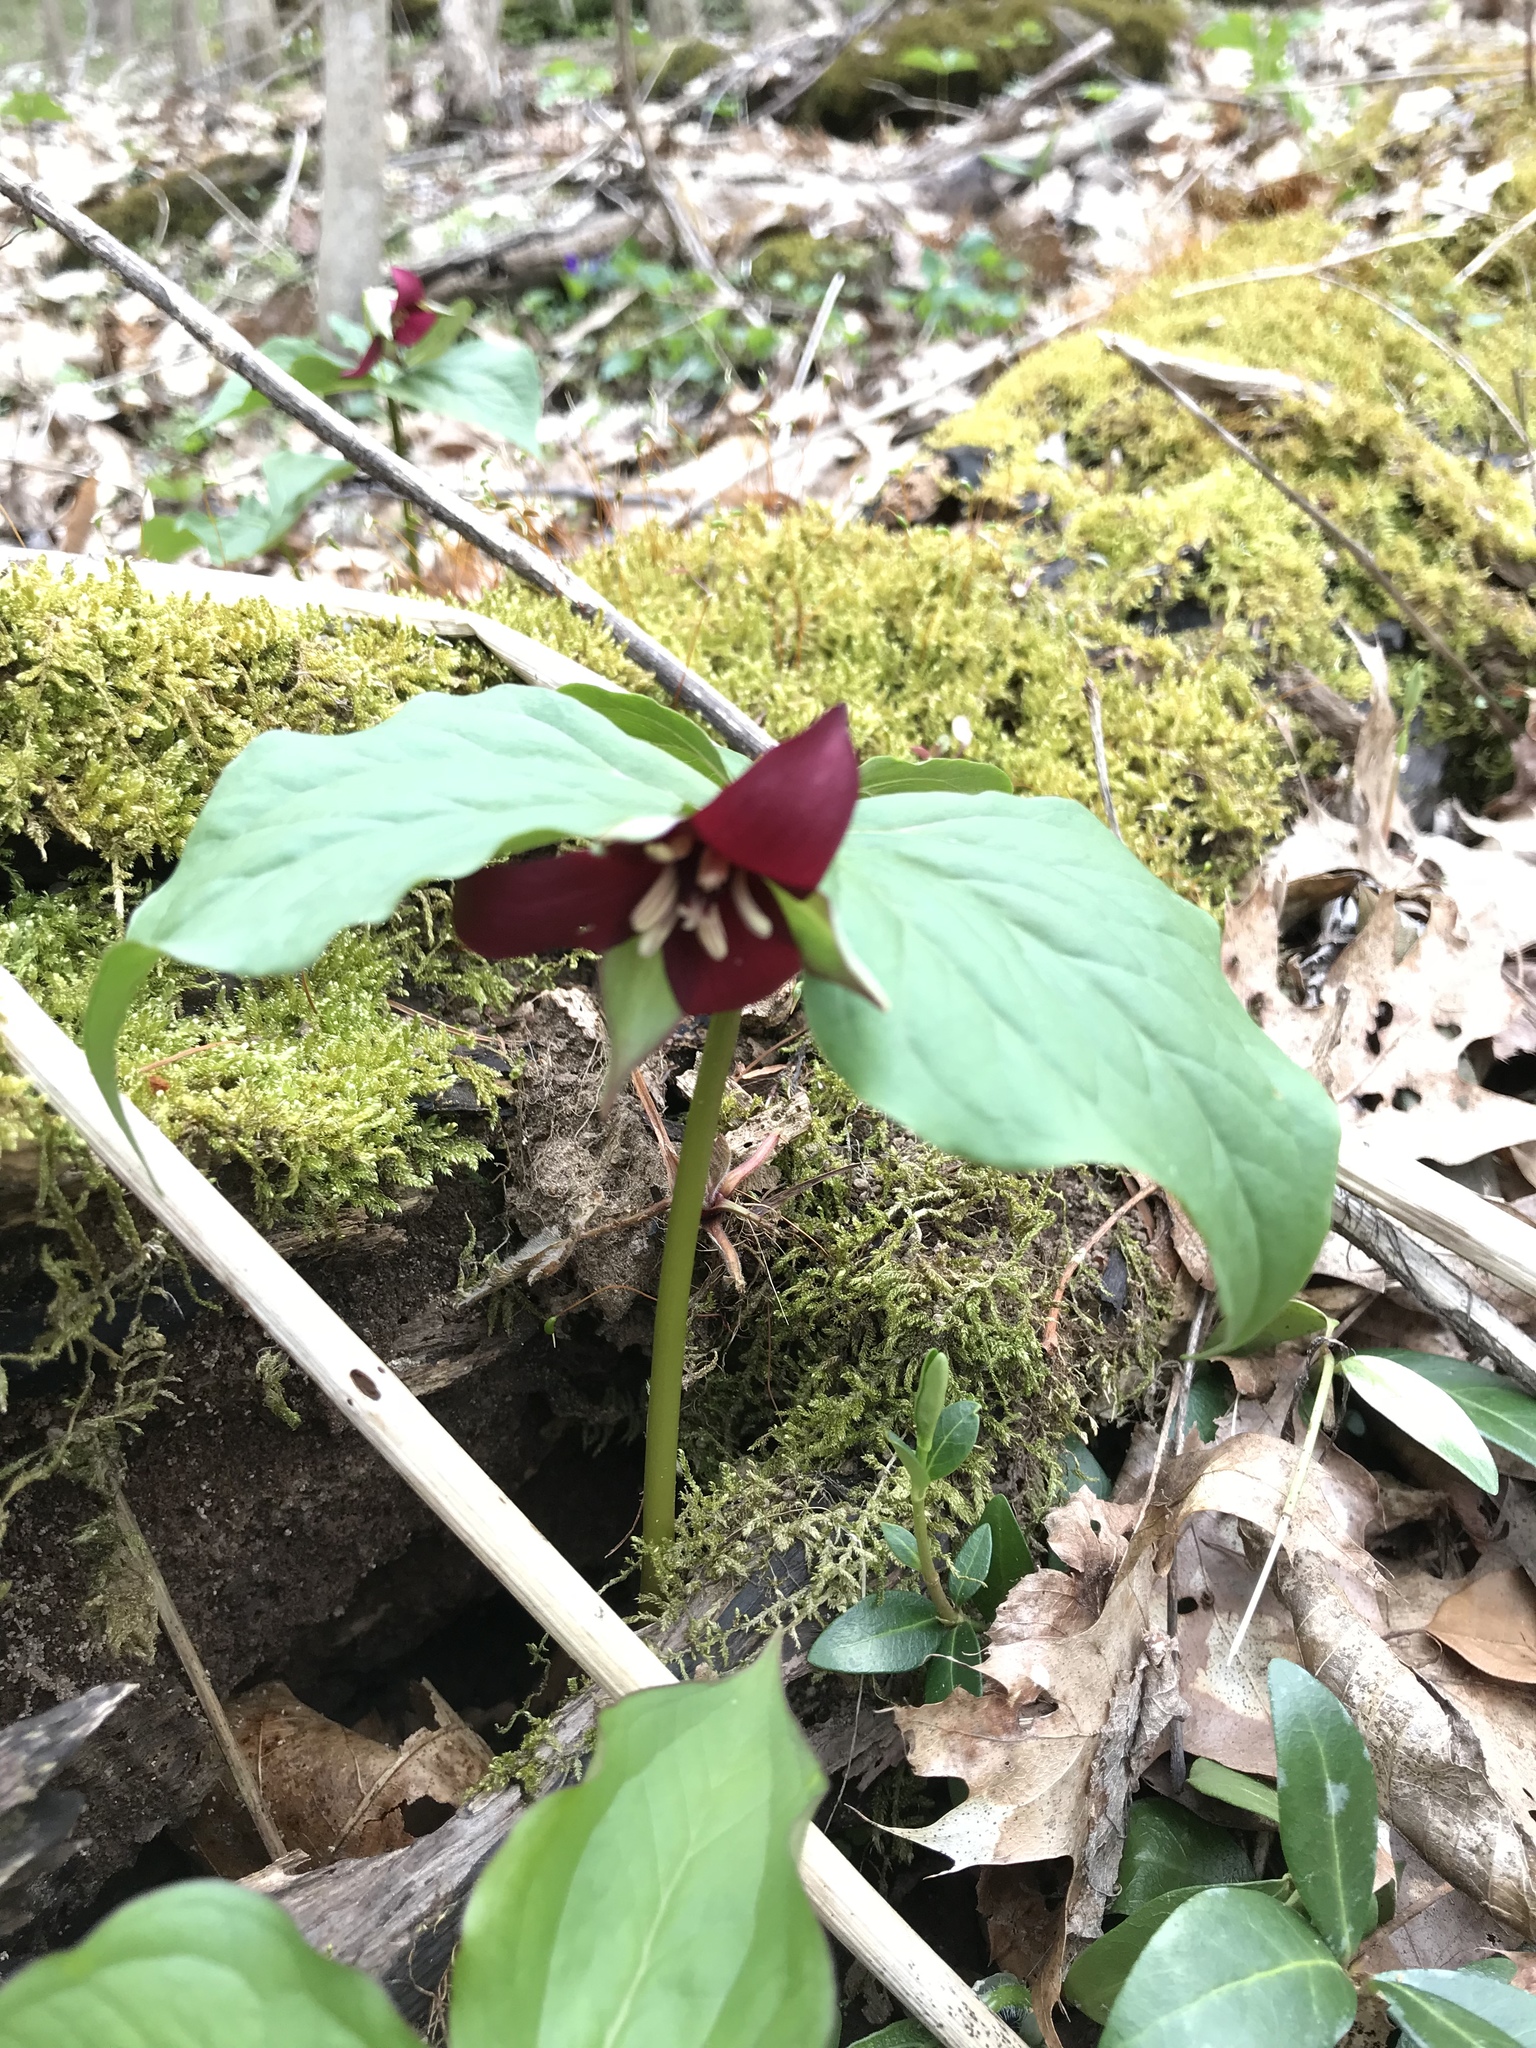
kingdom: Plantae
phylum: Tracheophyta
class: Liliopsida
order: Liliales
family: Melanthiaceae
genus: Trillium
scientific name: Trillium erectum
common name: Purple trillium
